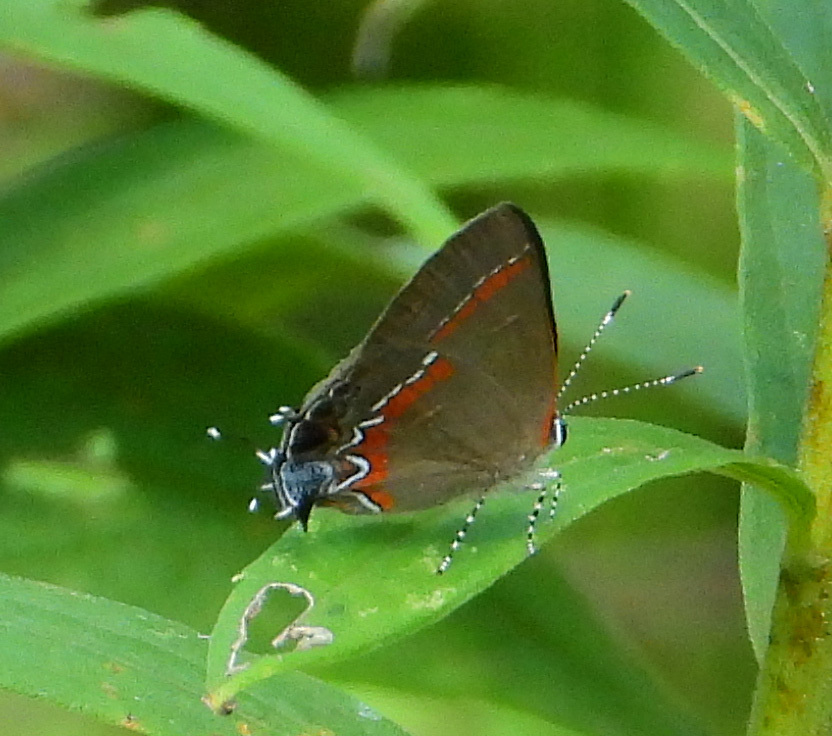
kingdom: Animalia
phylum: Arthropoda
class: Insecta
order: Lepidoptera
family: Lycaenidae
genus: Calycopis
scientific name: Calycopis cecrops
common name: Red-banded hairstreak
